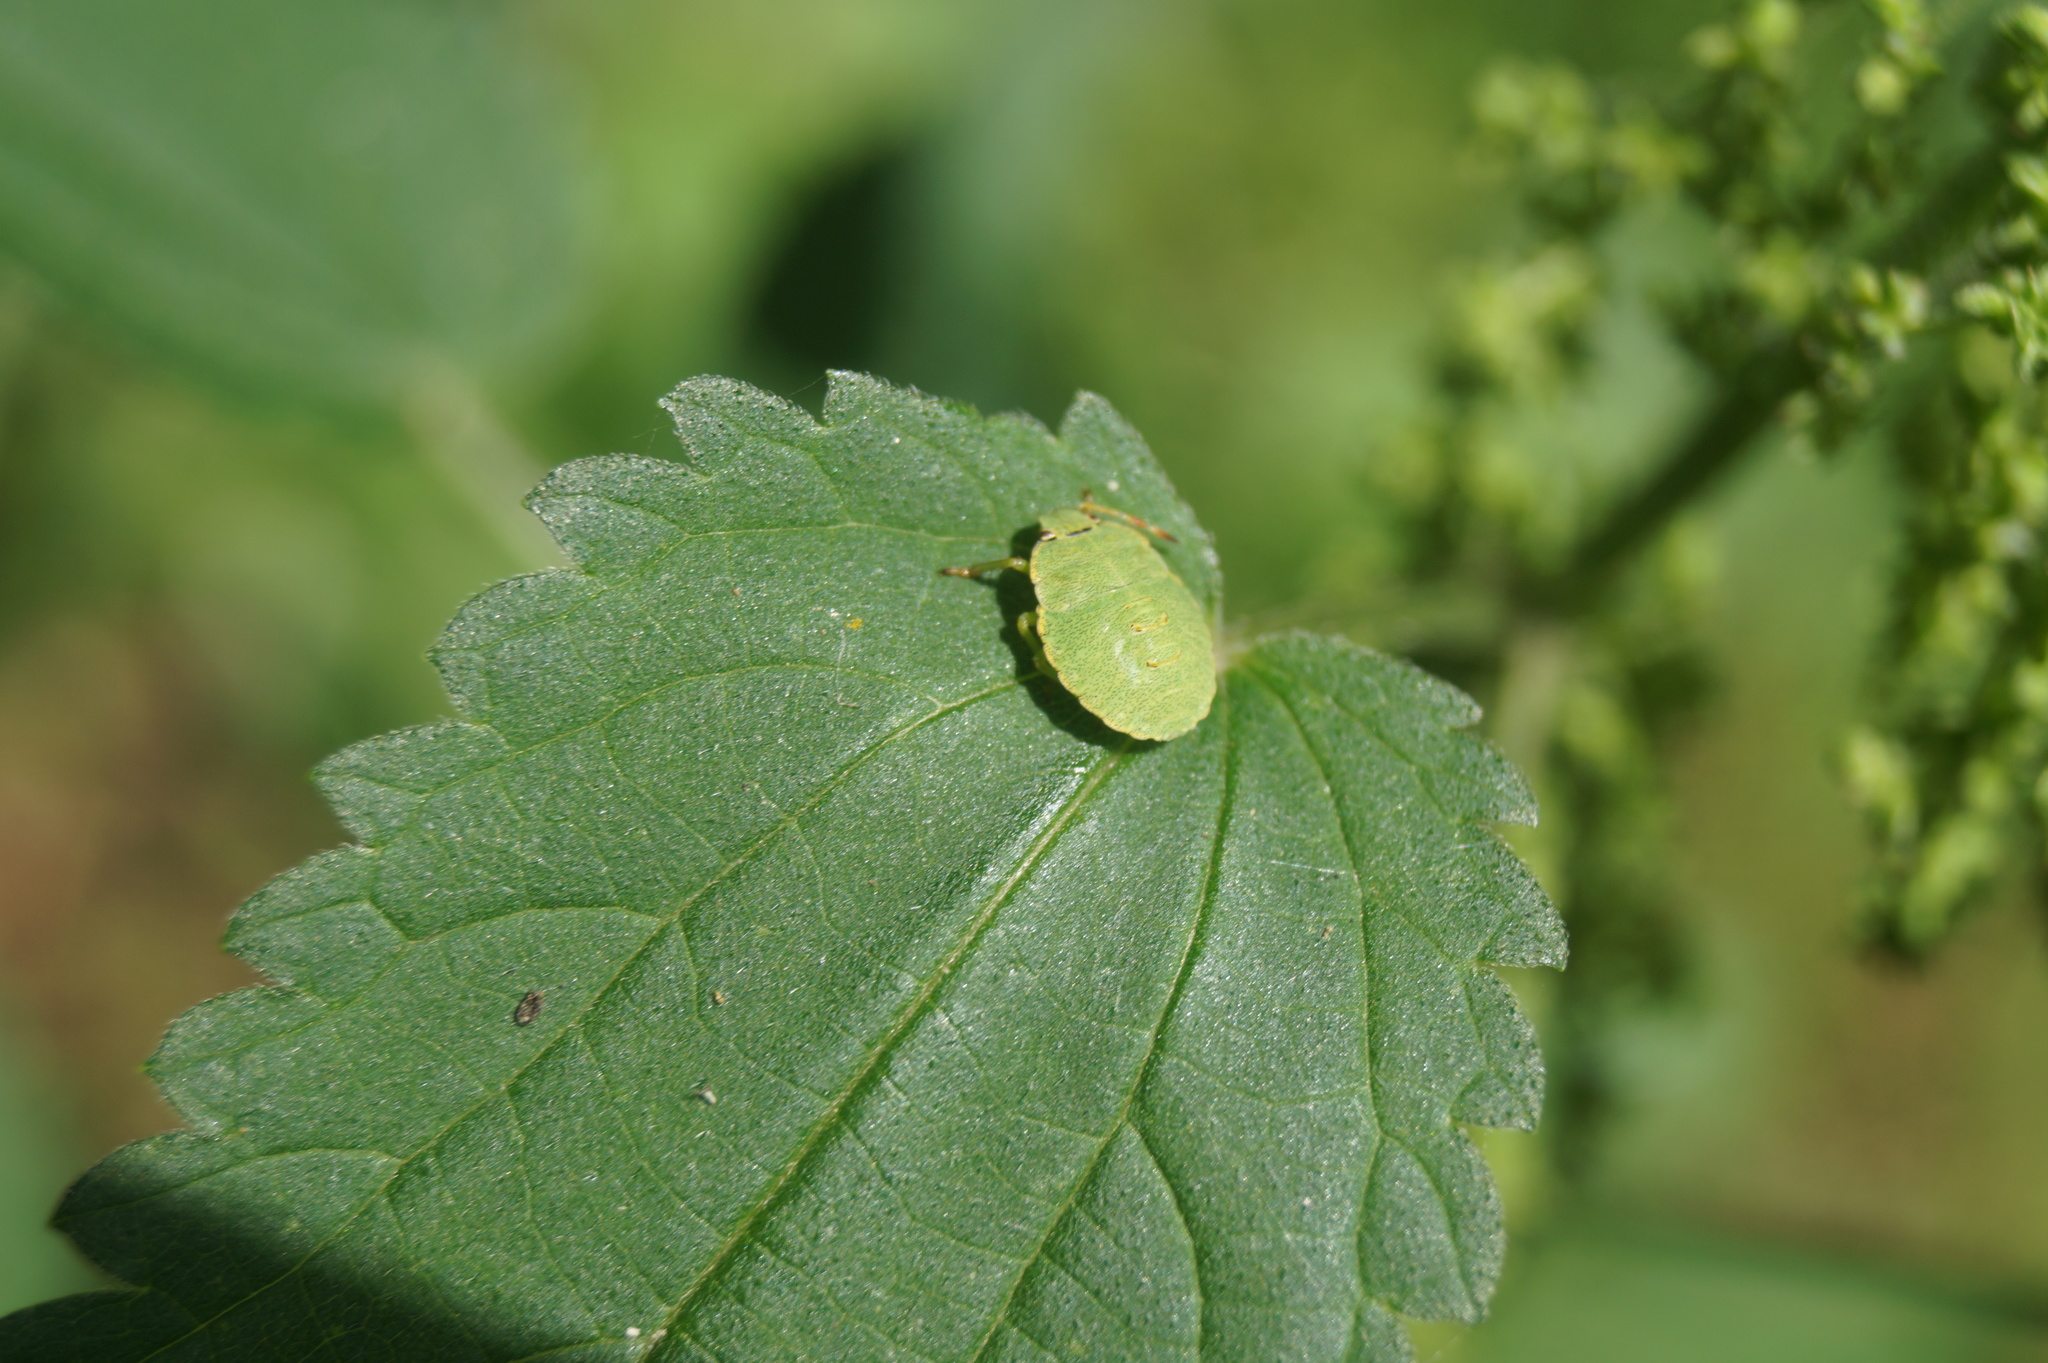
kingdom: Animalia
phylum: Arthropoda
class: Insecta
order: Hemiptera
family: Pentatomidae
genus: Palomena
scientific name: Palomena prasina
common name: Green shieldbug
